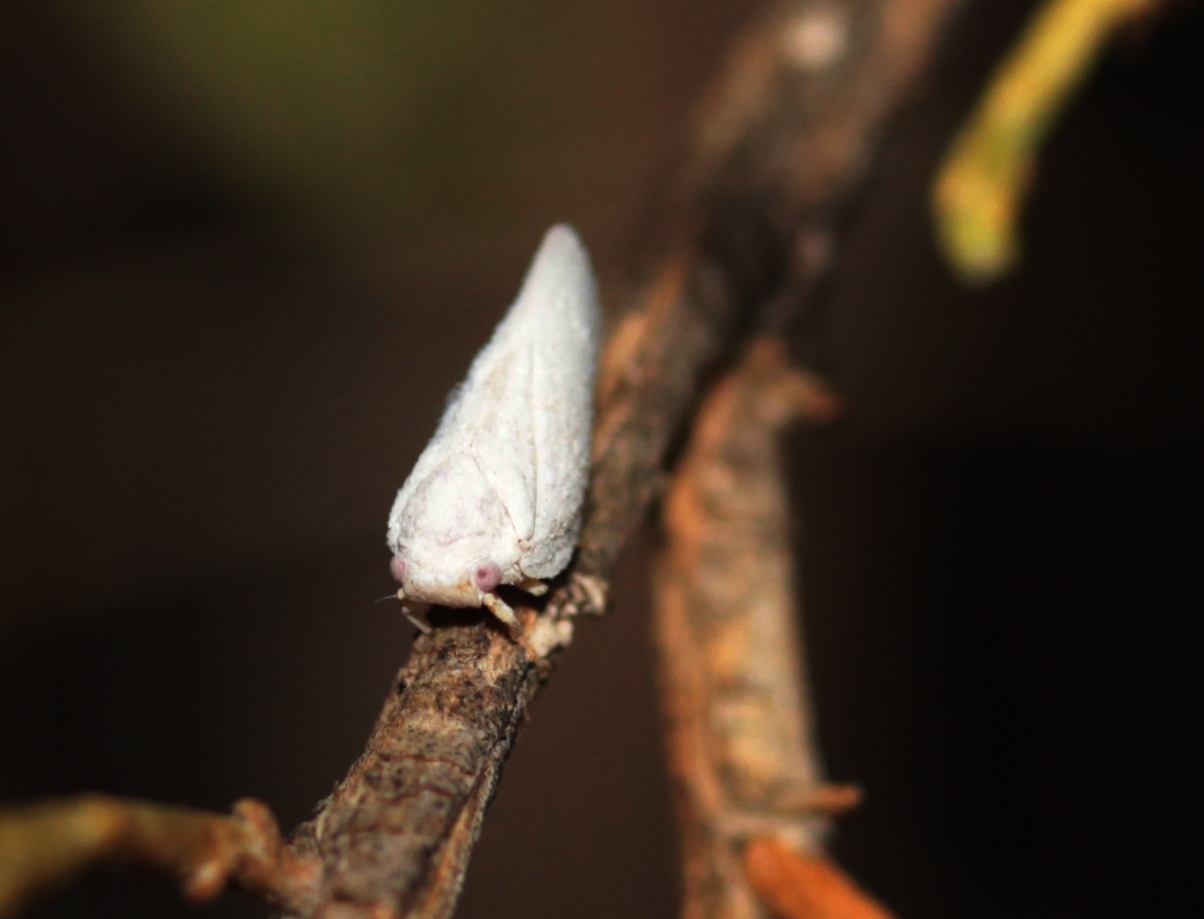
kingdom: Animalia
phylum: Arthropoda
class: Insecta
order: Hemiptera
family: Flatidae
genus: Flatormenis
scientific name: Flatormenis saucia
